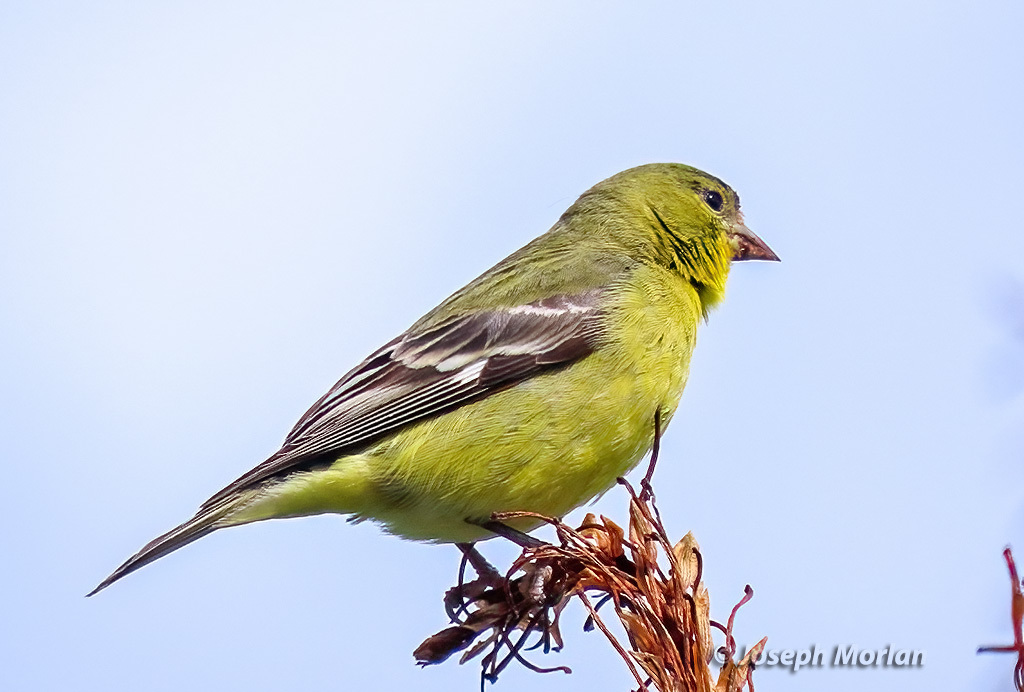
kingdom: Animalia
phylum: Chordata
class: Aves
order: Passeriformes
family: Fringillidae
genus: Spinus
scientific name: Spinus psaltria
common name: Lesser goldfinch
